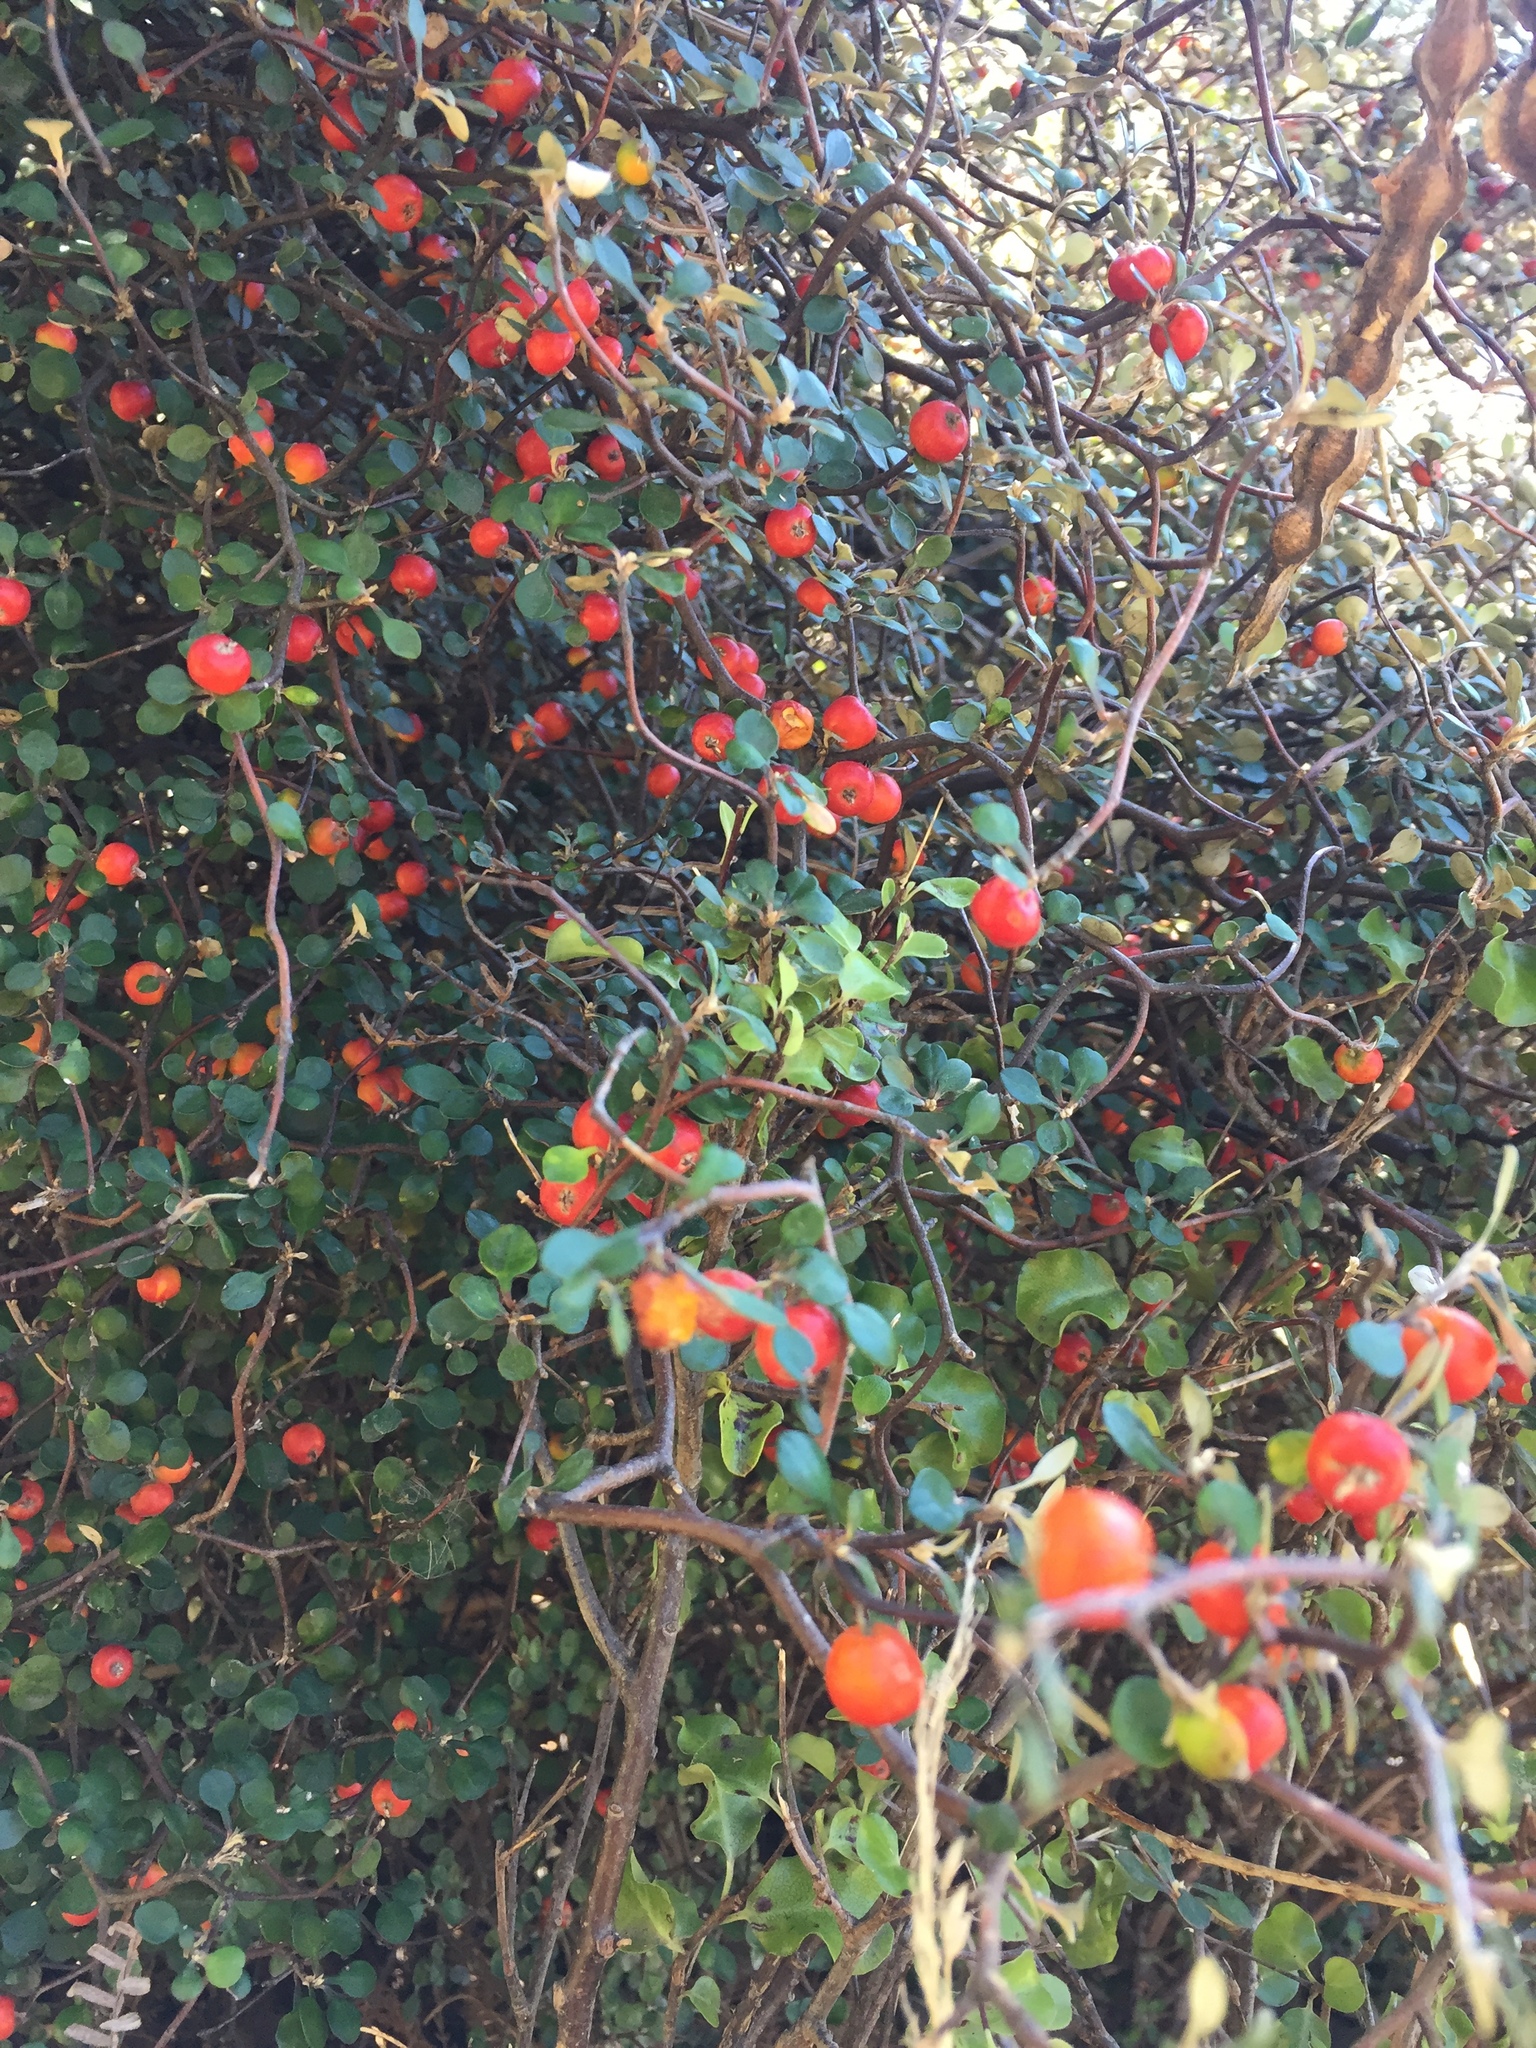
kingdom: Plantae
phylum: Tracheophyta
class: Magnoliopsida
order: Asterales
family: Argophyllaceae
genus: Corokia
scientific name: Corokia cotoneaster
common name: Wire nettingbush
